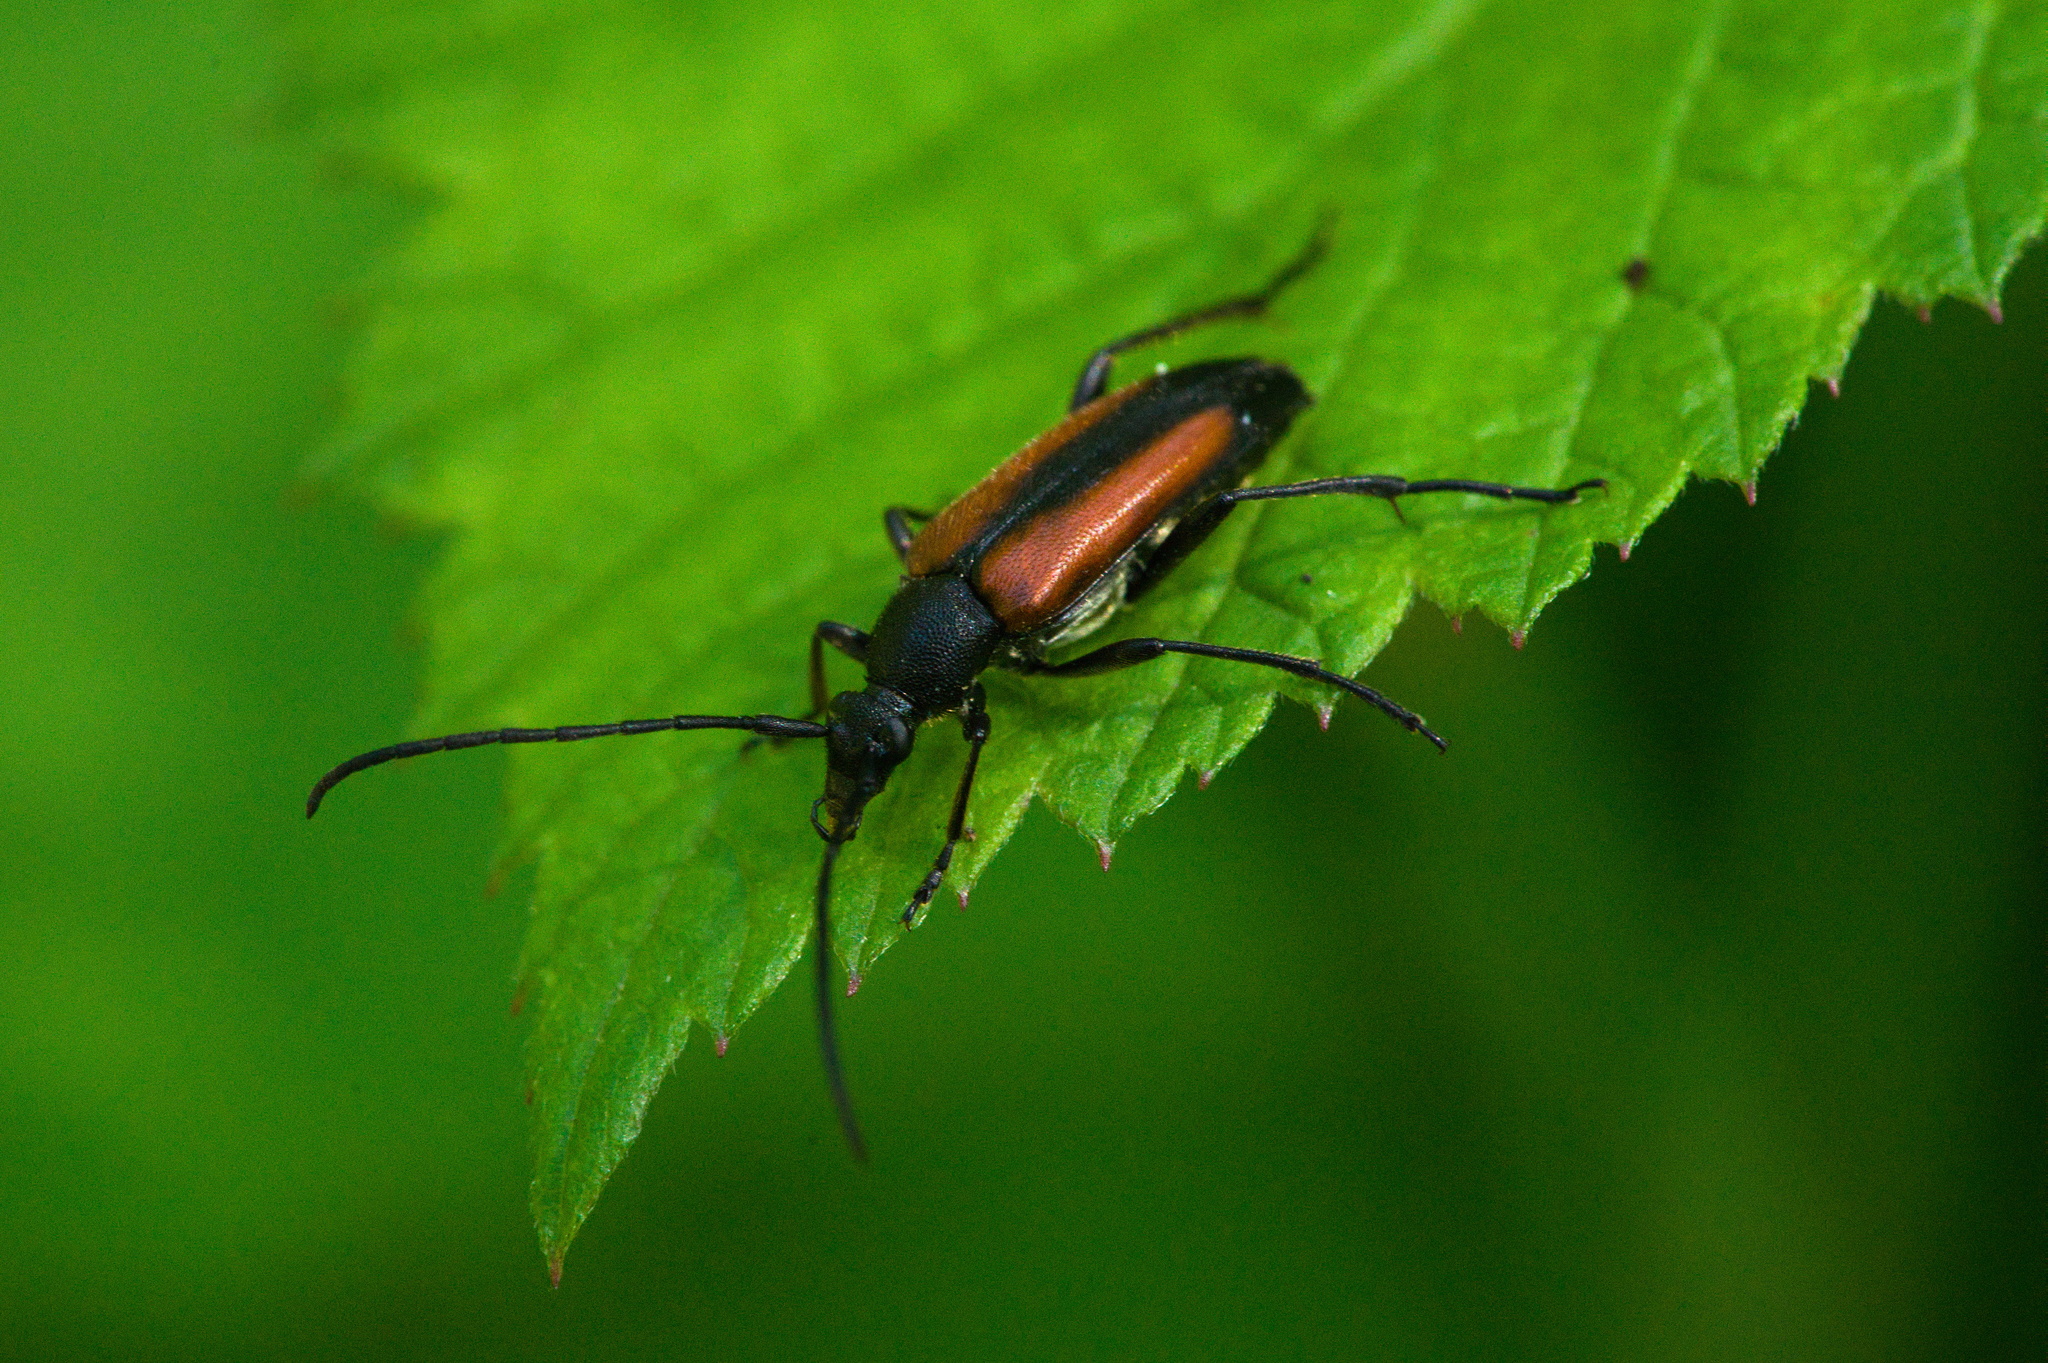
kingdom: Animalia
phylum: Arthropoda
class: Insecta
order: Coleoptera
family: Cerambycidae
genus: Stenurella
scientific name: Stenurella melanura
